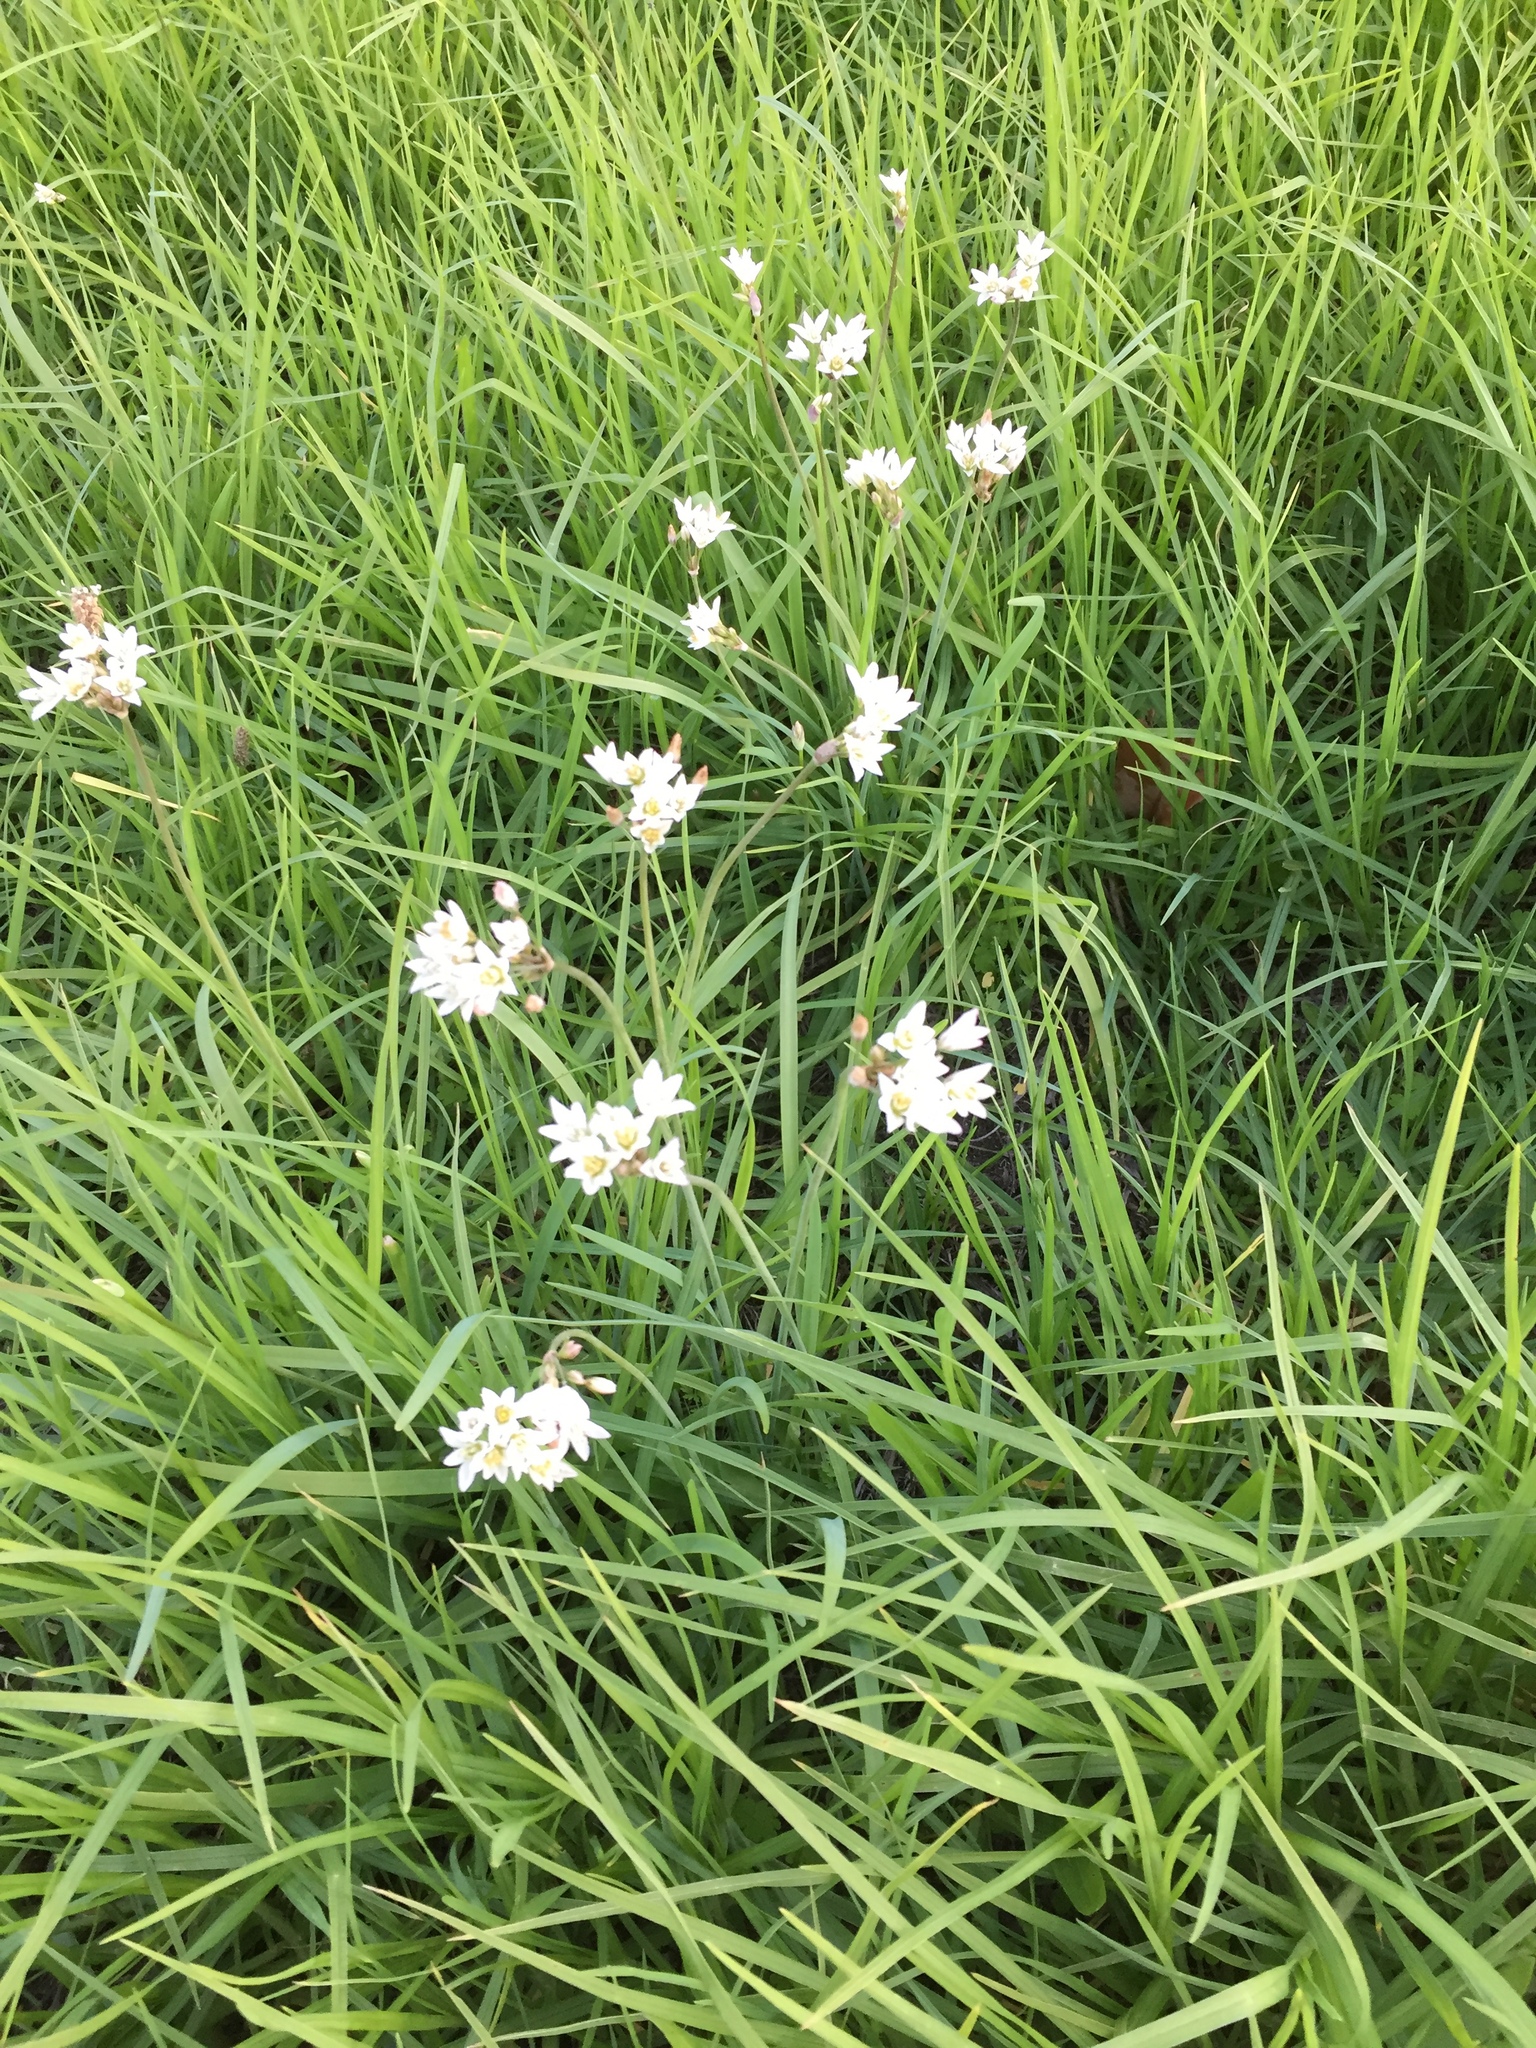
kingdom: Plantae
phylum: Tracheophyta
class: Liliopsida
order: Asparagales
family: Amaryllidaceae
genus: Nothoscordum
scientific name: Nothoscordum gracile
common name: Slender false garlic
